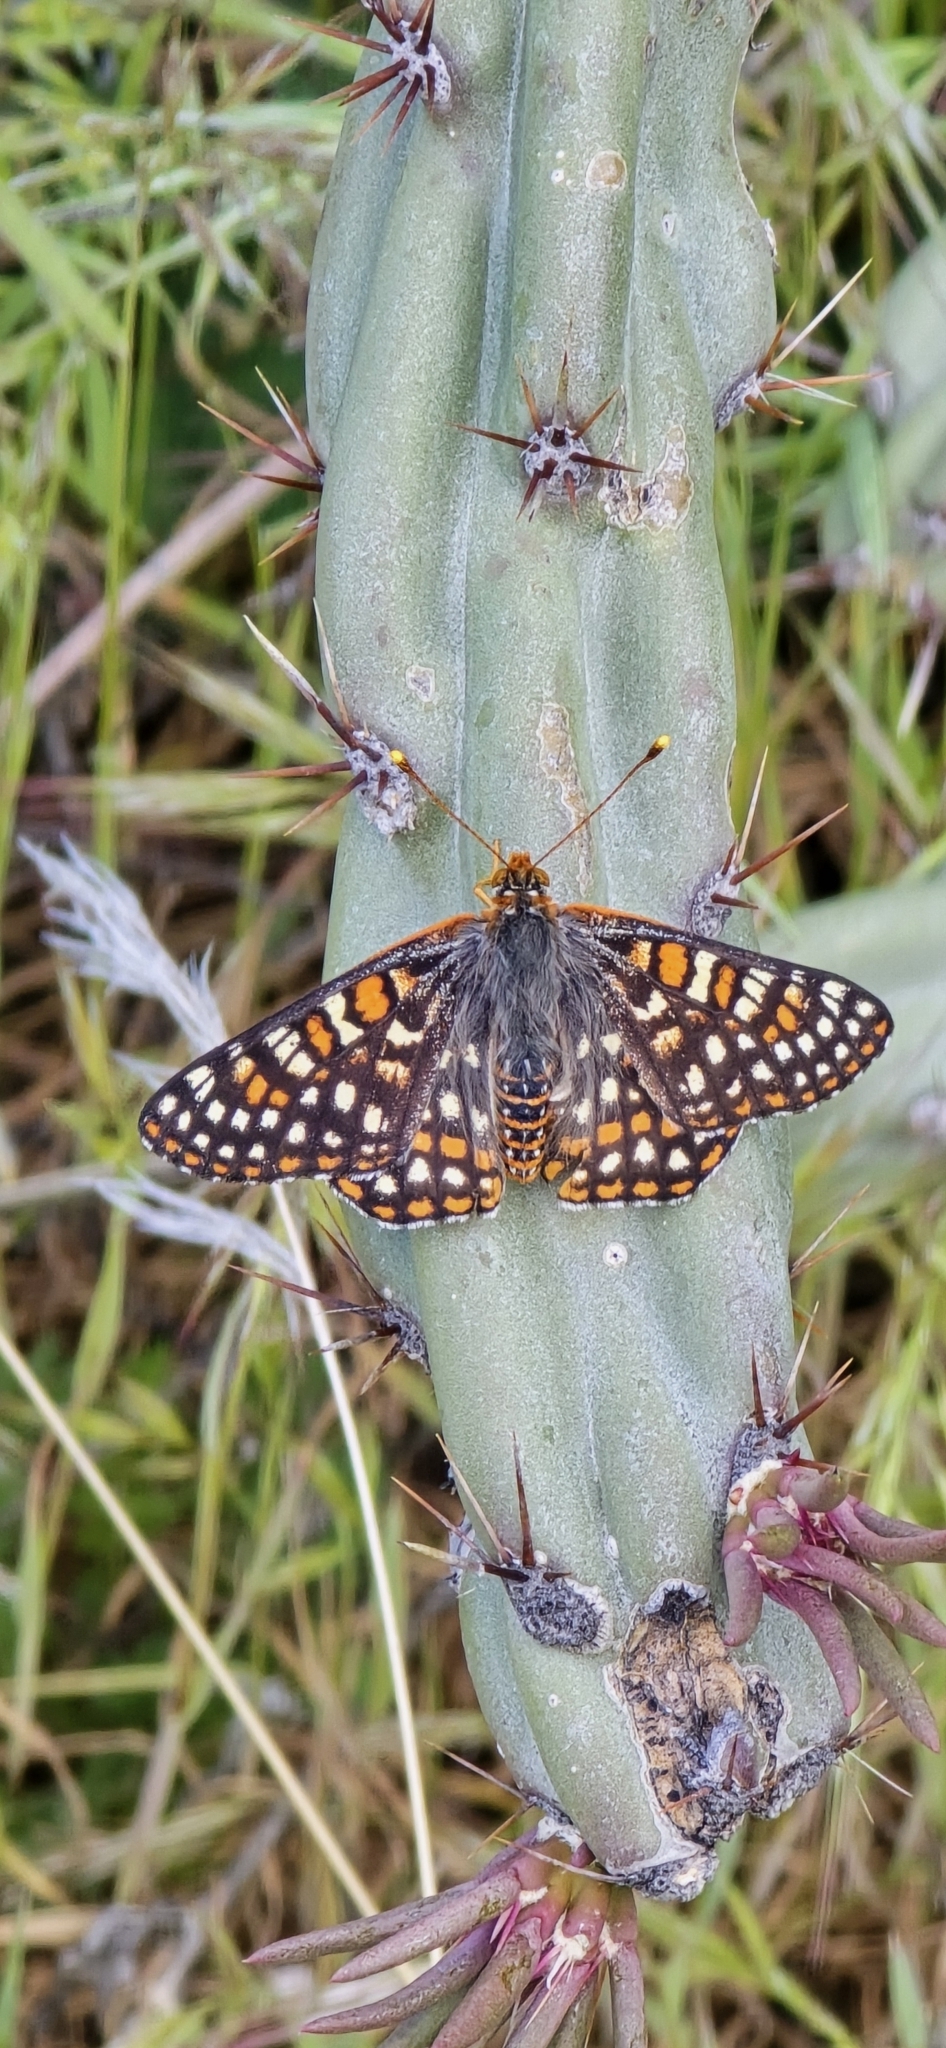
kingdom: Animalia
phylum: Arthropoda
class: Insecta
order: Lepidoptera
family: Nymphalidae
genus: Occidryas
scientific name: Occidryas chalcedona
